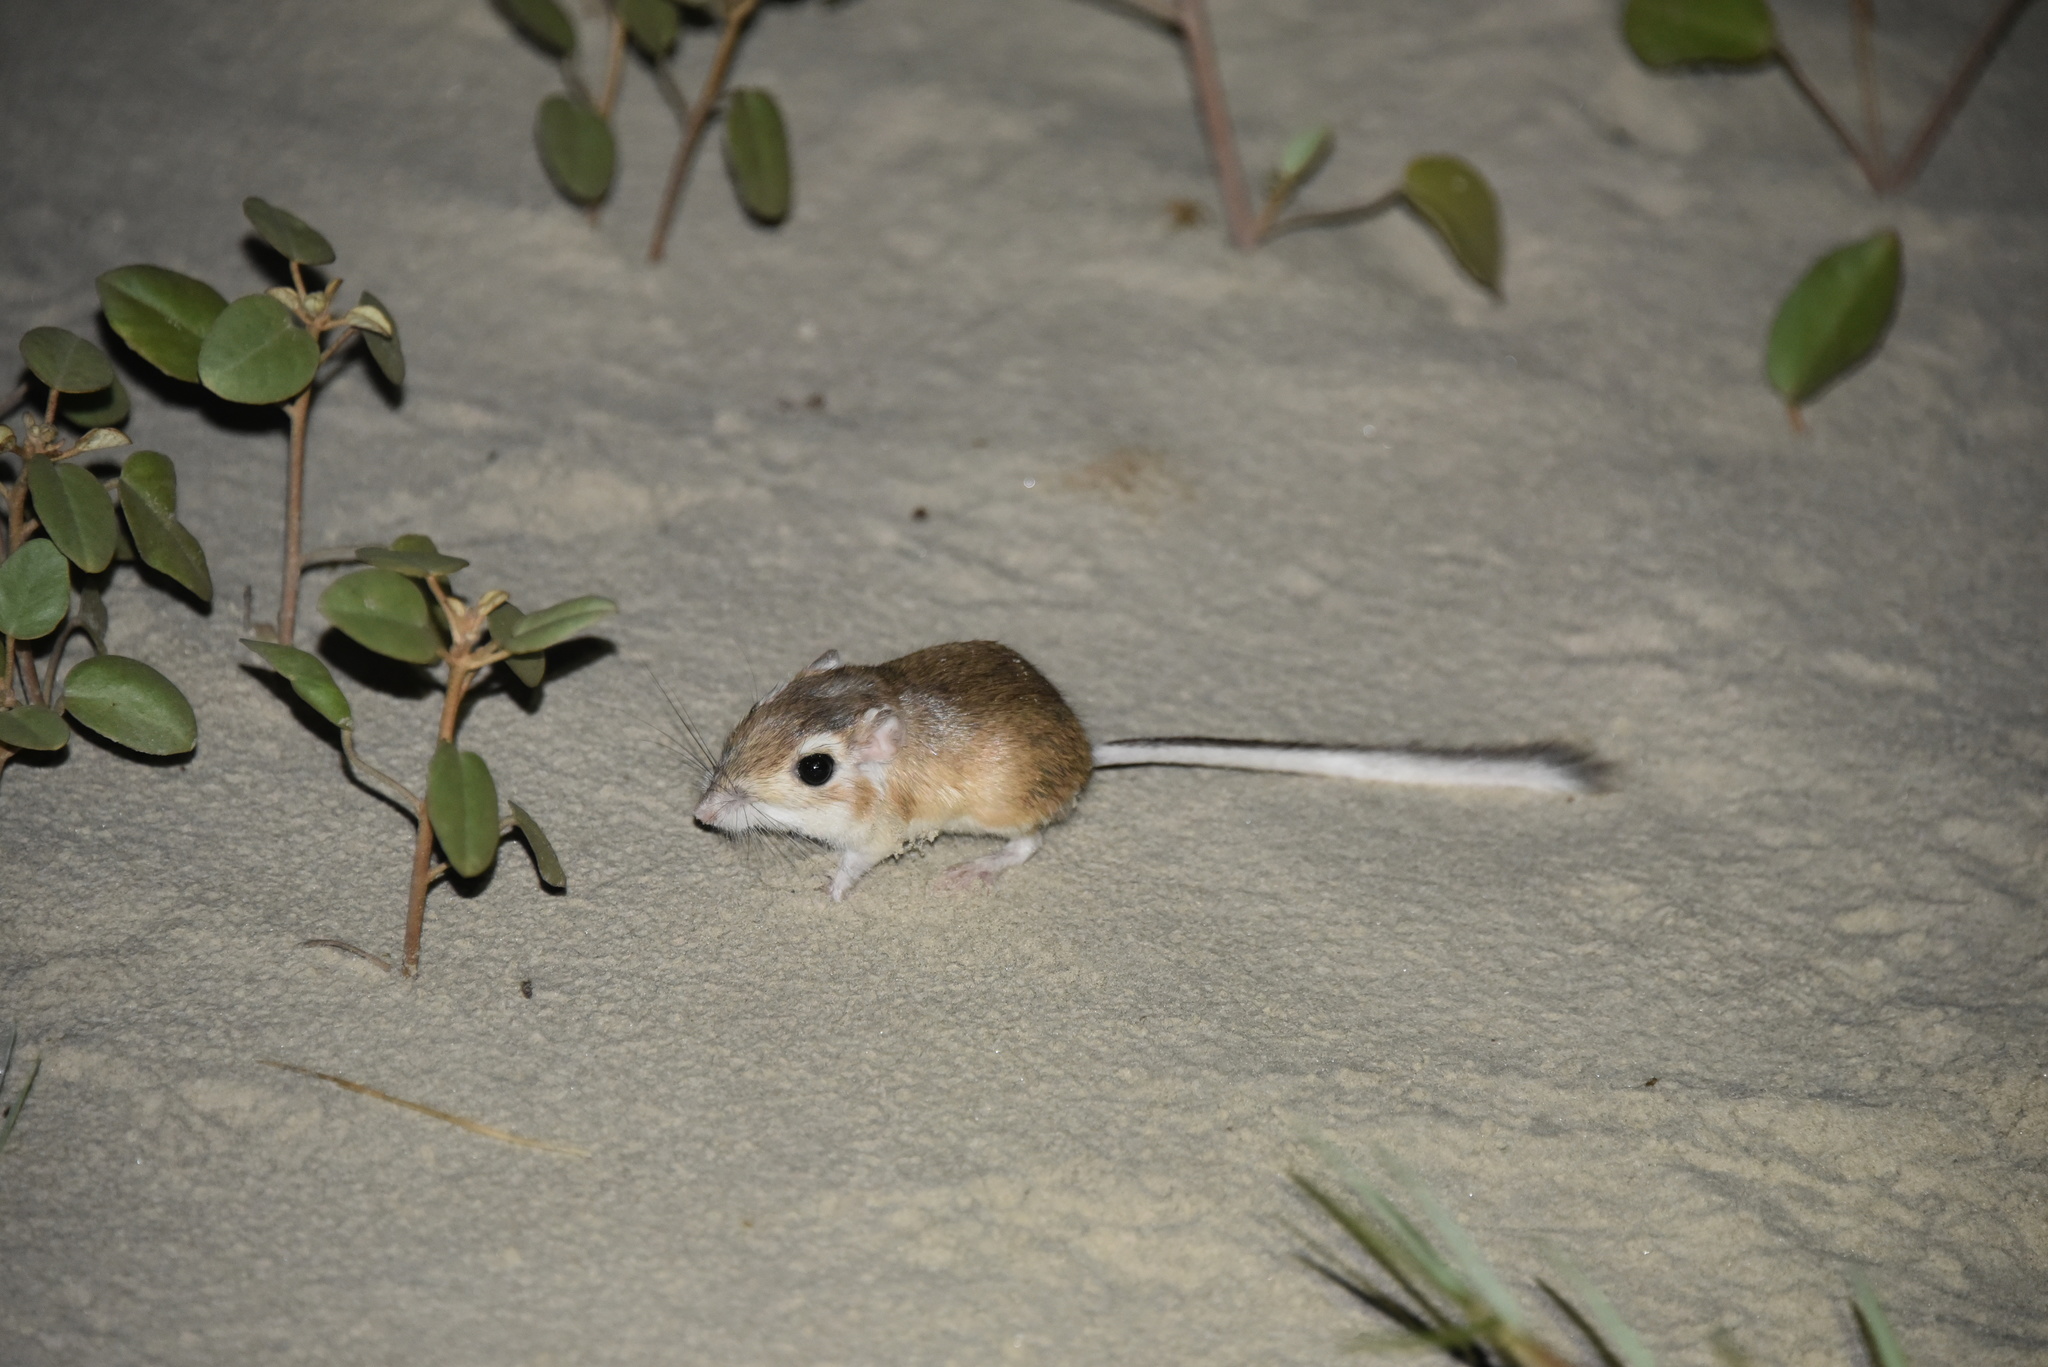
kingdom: Animalia
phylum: Chordata
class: Mammalia
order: Rodentia
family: Heteromyidae
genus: Dipodomys
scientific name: Dipodomys compactus
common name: Gulf coast kangaroo rat
